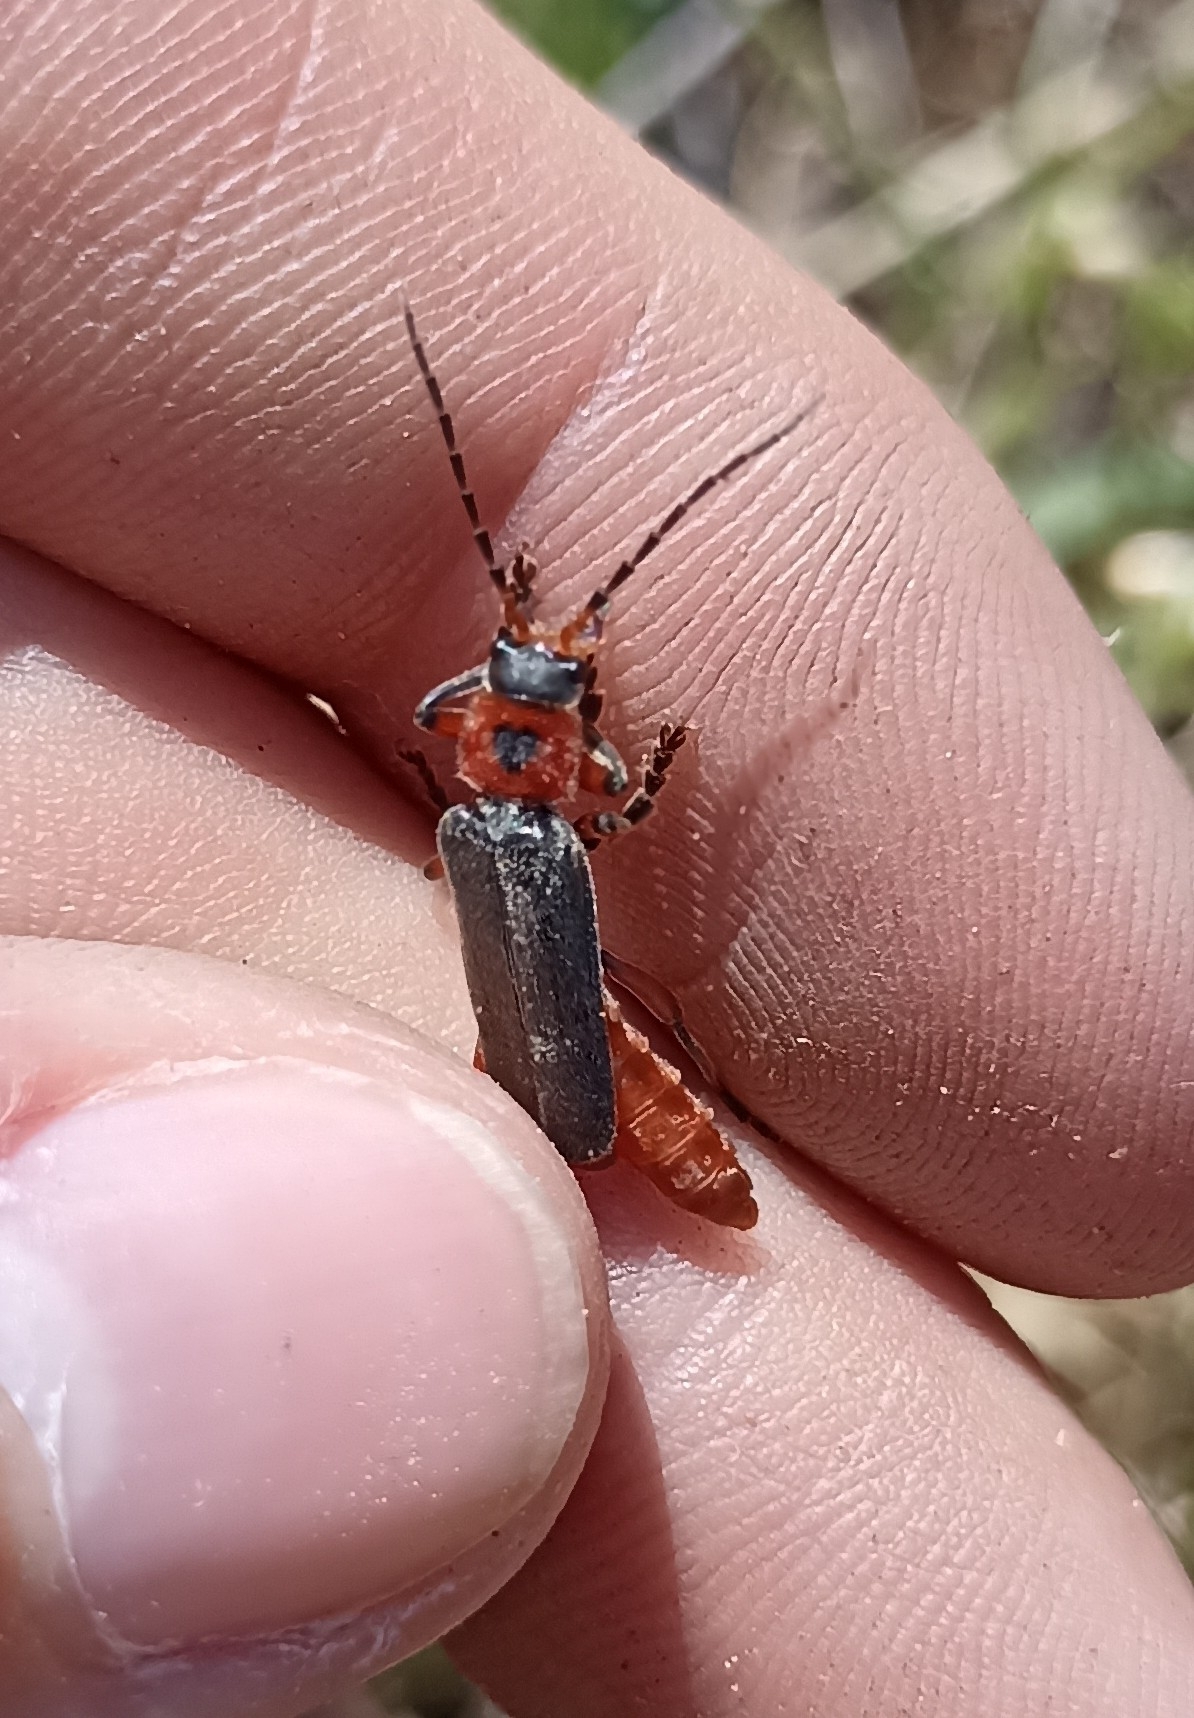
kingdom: Animalia
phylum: Arthropoda
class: Insecta
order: Coleoptera
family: Cantharidae
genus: Cantharis
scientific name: Cantharis rustica
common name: Soldier beetle
